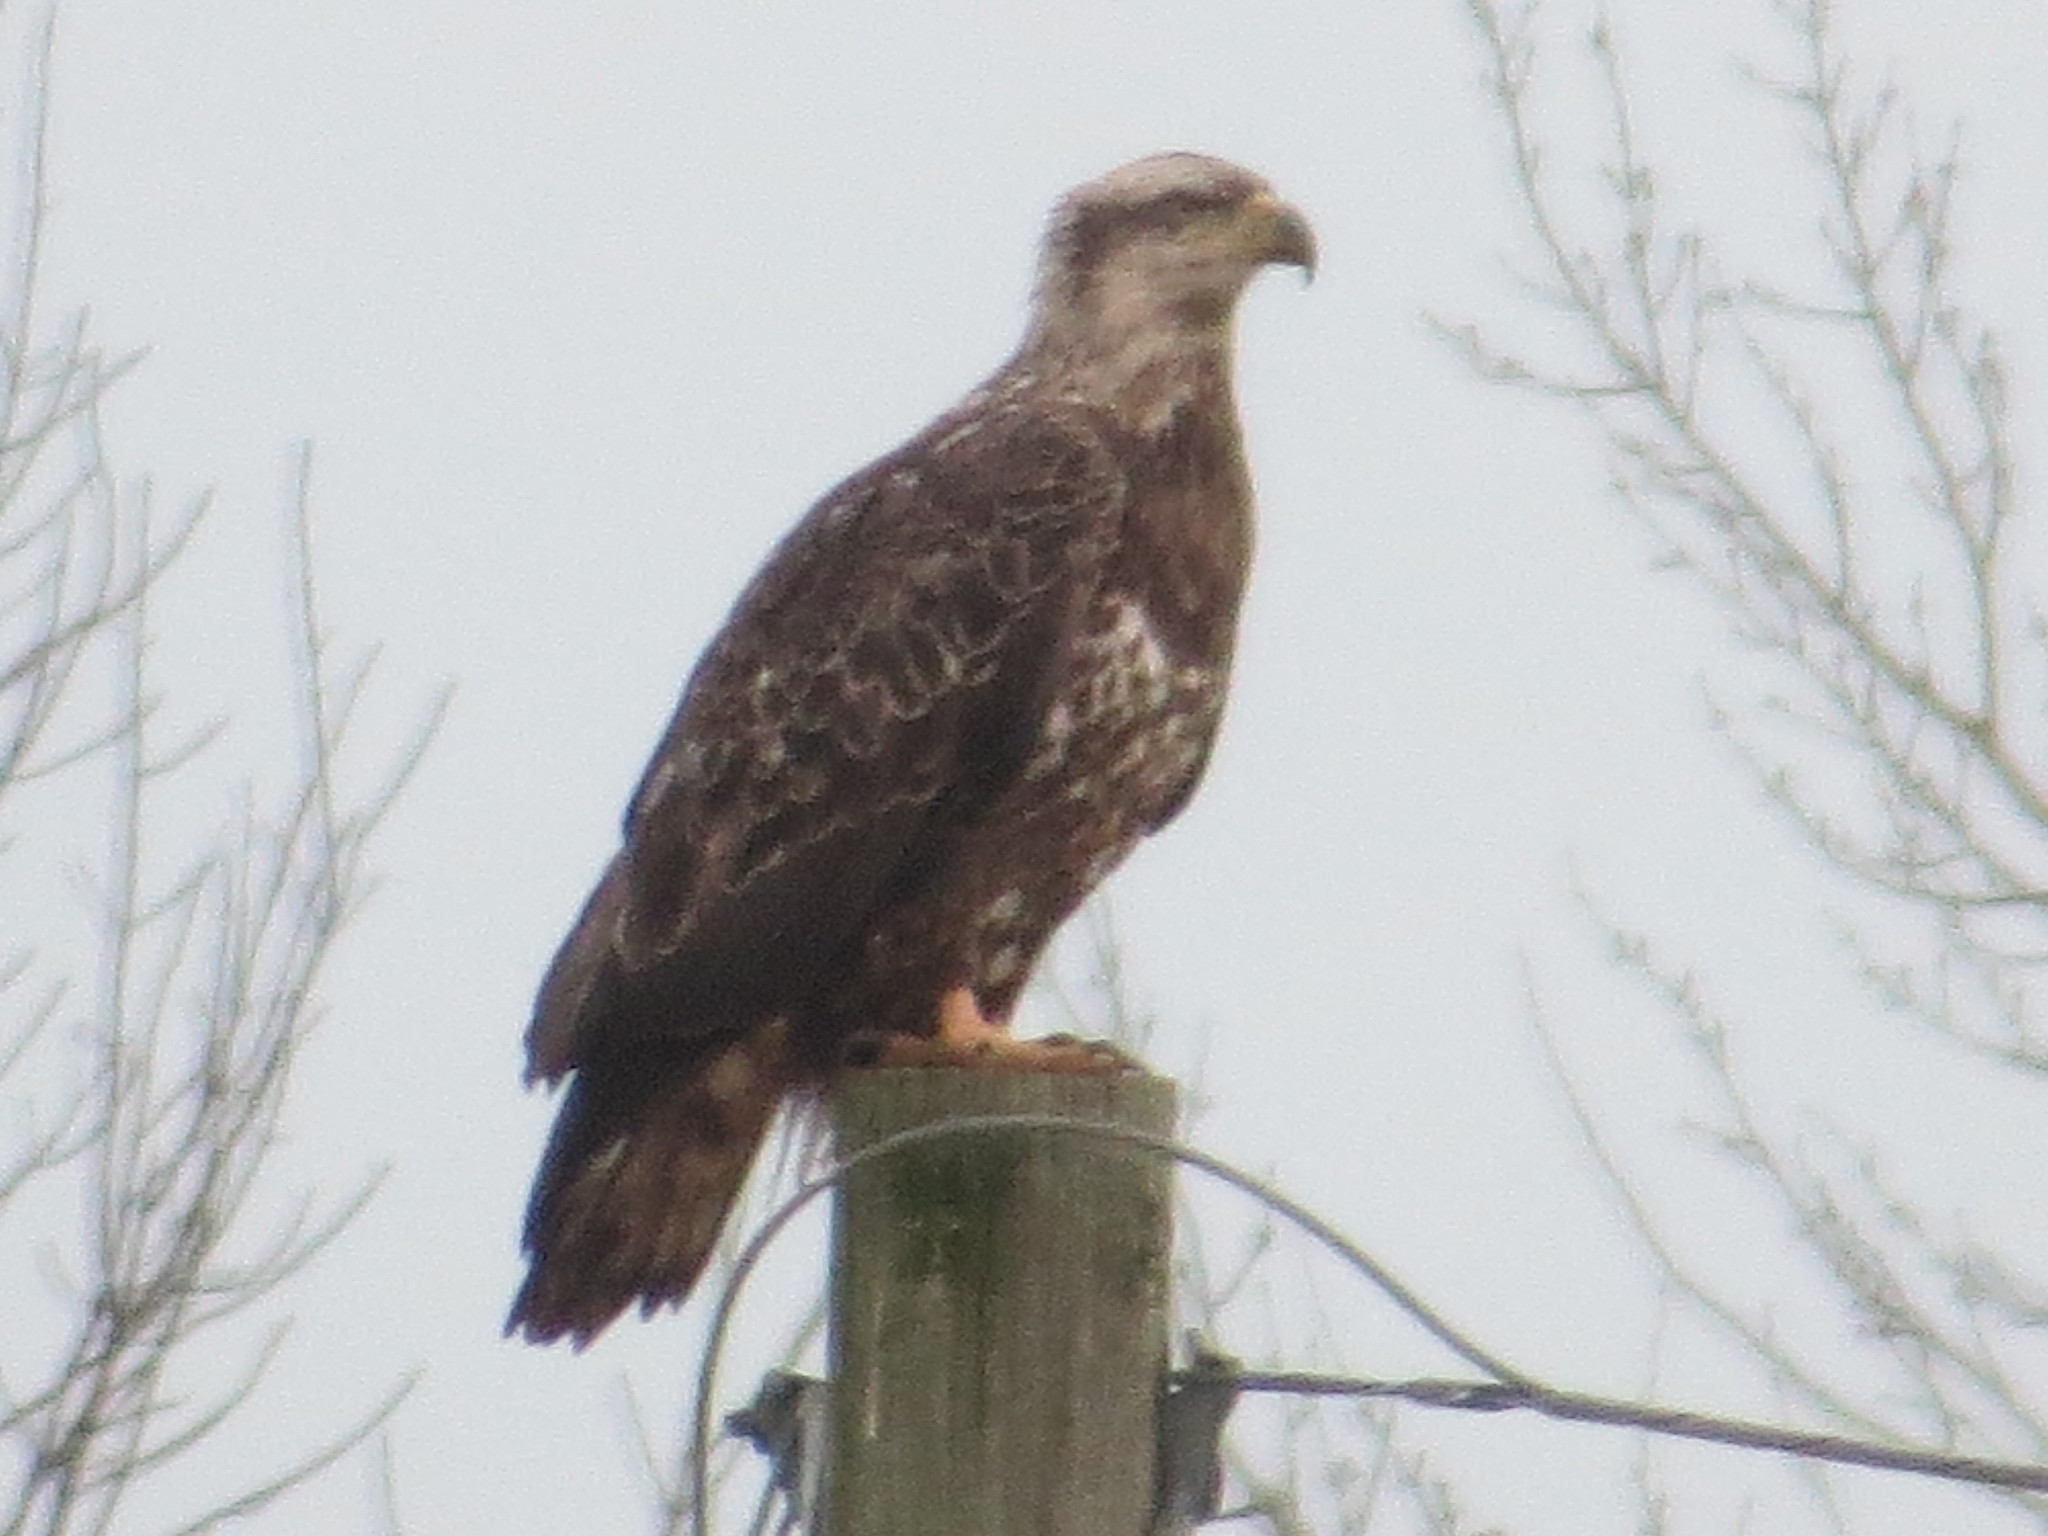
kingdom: Animalia
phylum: Chordata
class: Aves
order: Accipitriformes
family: Accipitridae
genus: Haliaeetus
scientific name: Haliaeetus leucocephalus
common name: Bald eagle
